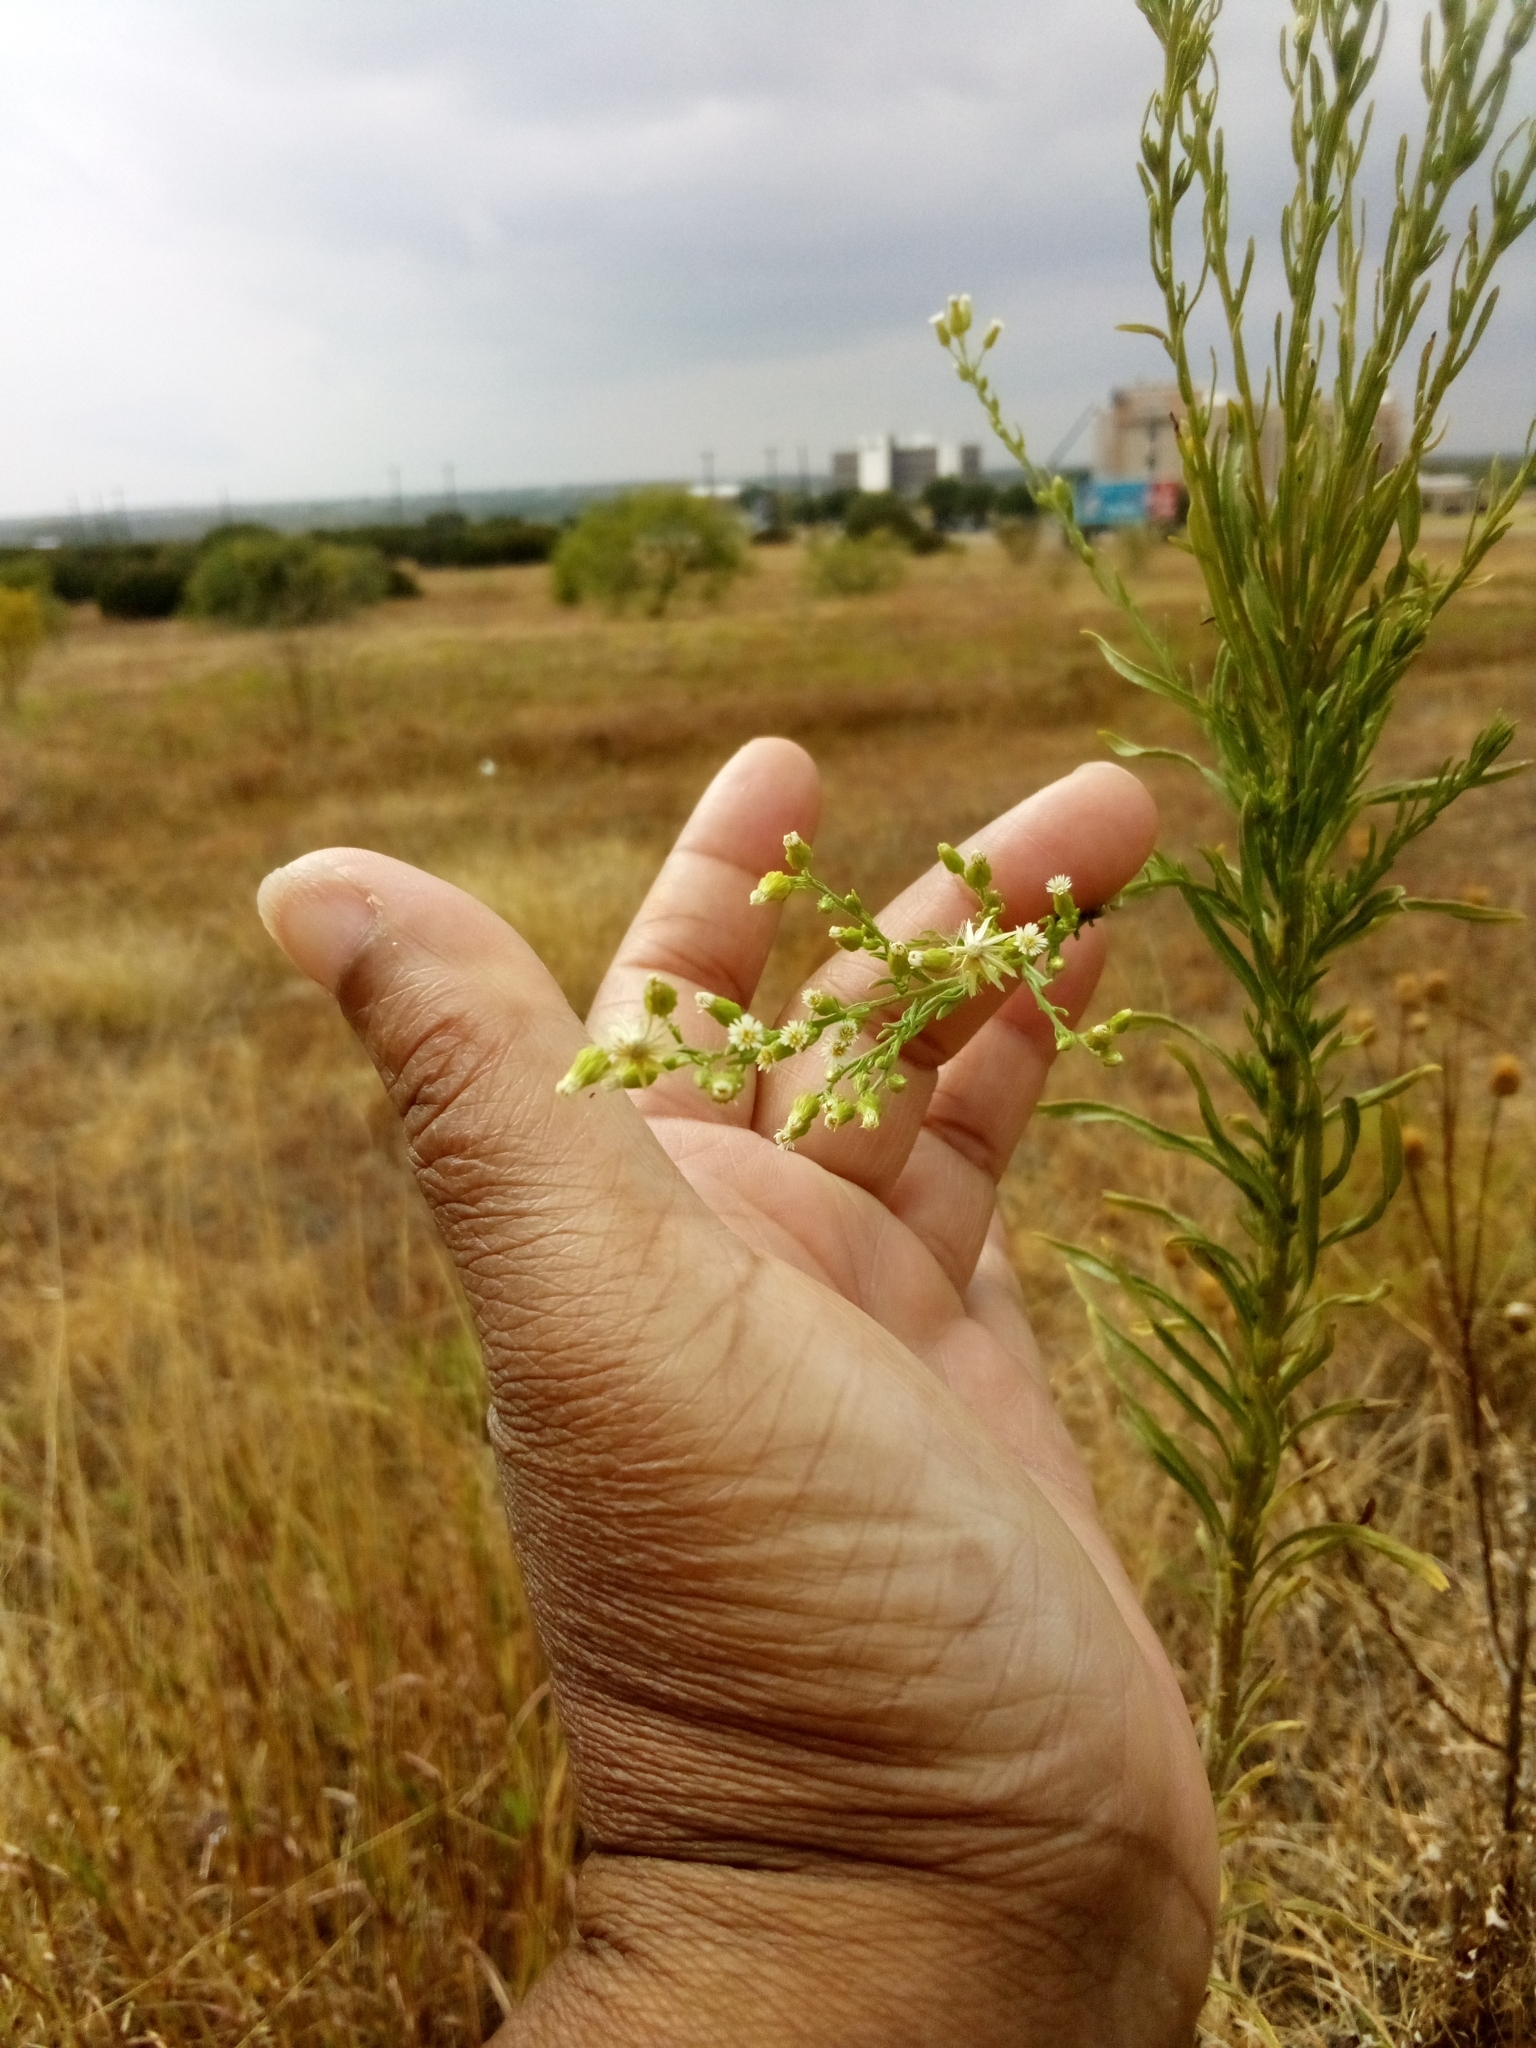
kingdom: Plantae
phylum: Tracheophyta
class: Magnoliopsida
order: Asterales
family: Asteraceae
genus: Erigeron
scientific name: Erigeron canadensis
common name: Canadian fleabane
